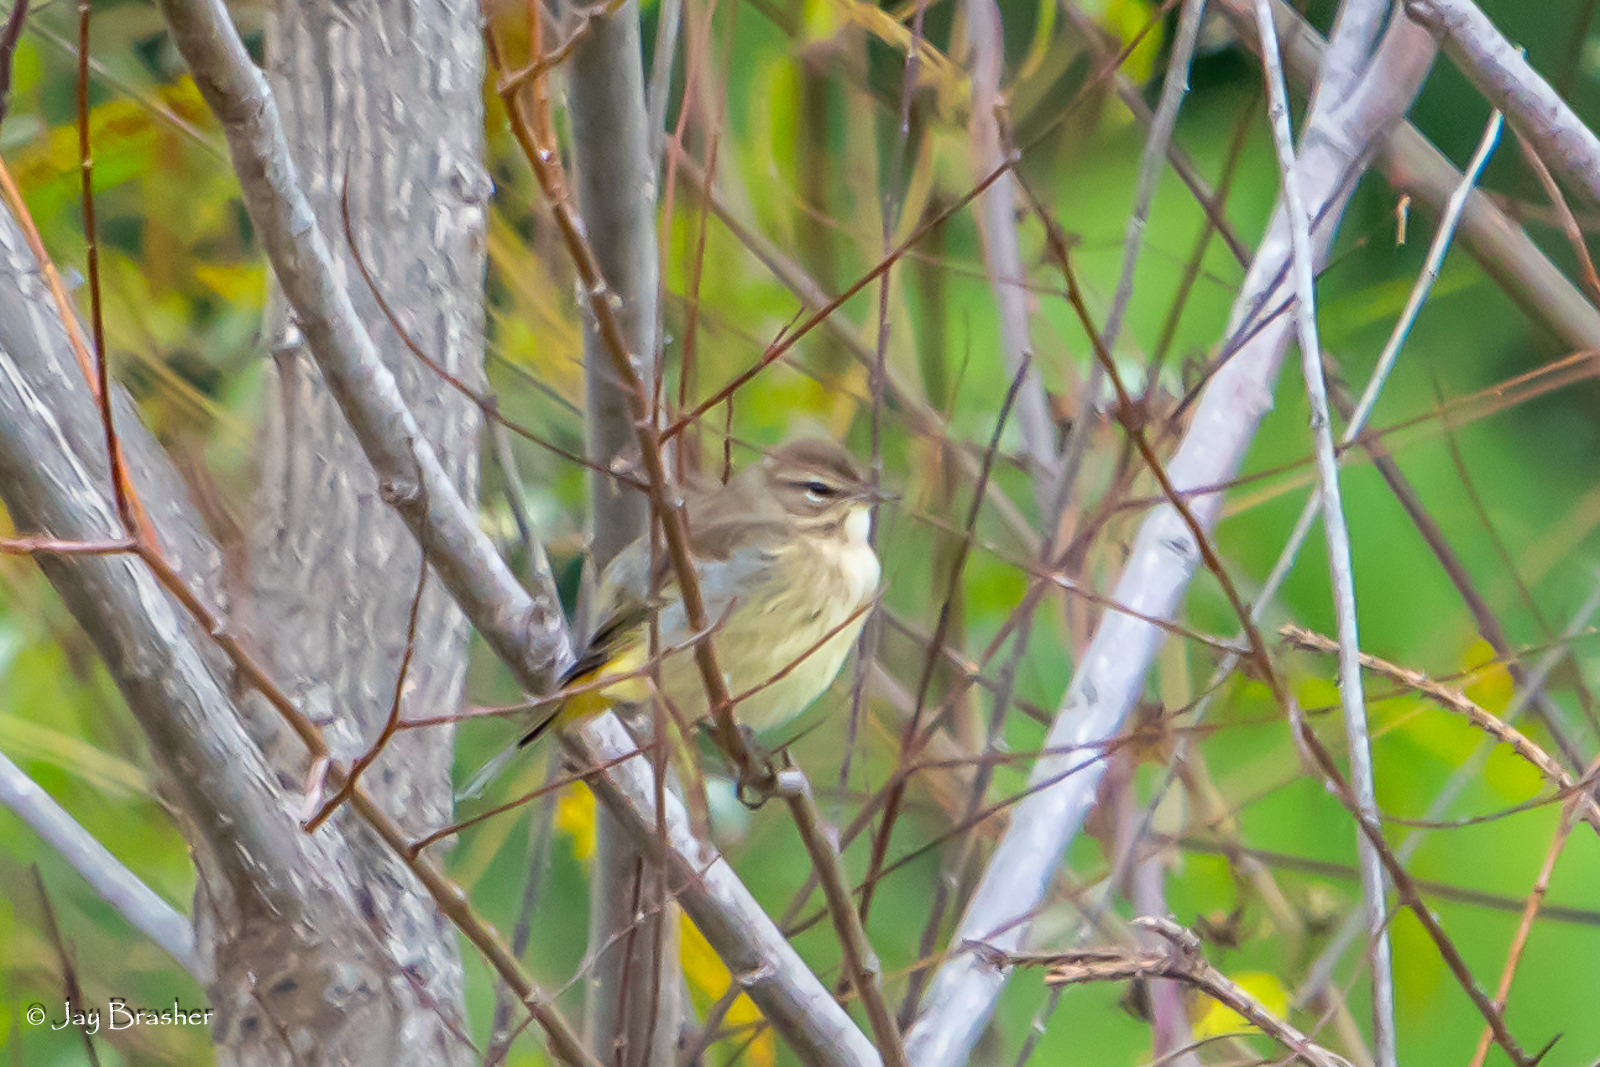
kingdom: Animalia
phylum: Chordata
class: Aves
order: Passeriformes
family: Parulidae
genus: Setophaga
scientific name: Setophaga palmarum
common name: Palm warbler
